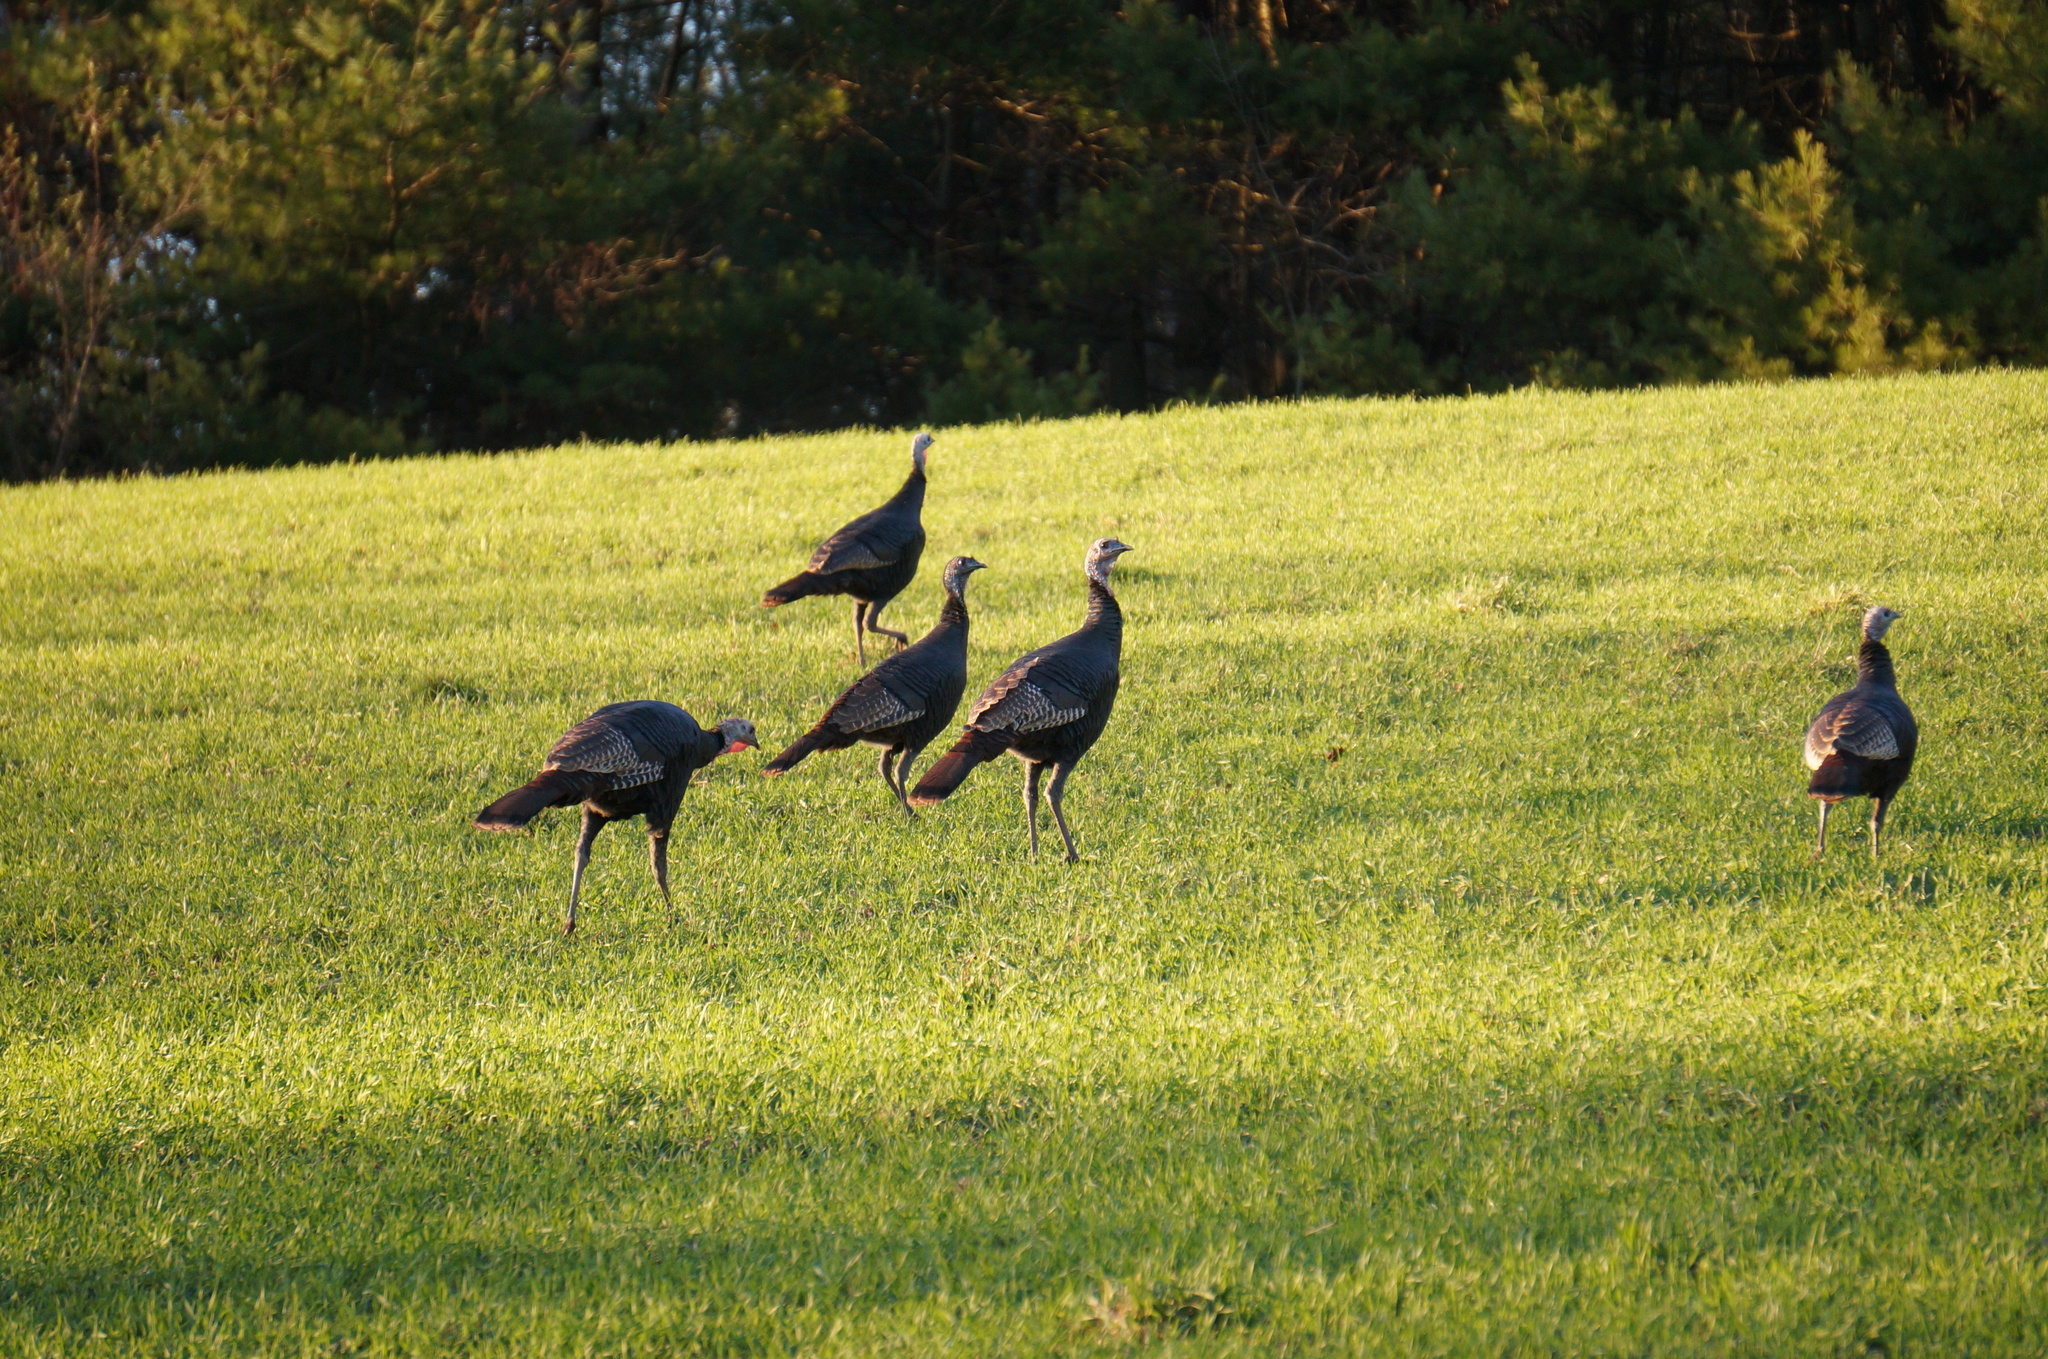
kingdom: Animalia
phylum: Chordata
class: Aves
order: Galliformes
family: Phasianidae
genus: Meleagris
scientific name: Meleagris gallopavo
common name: Wild turkey
